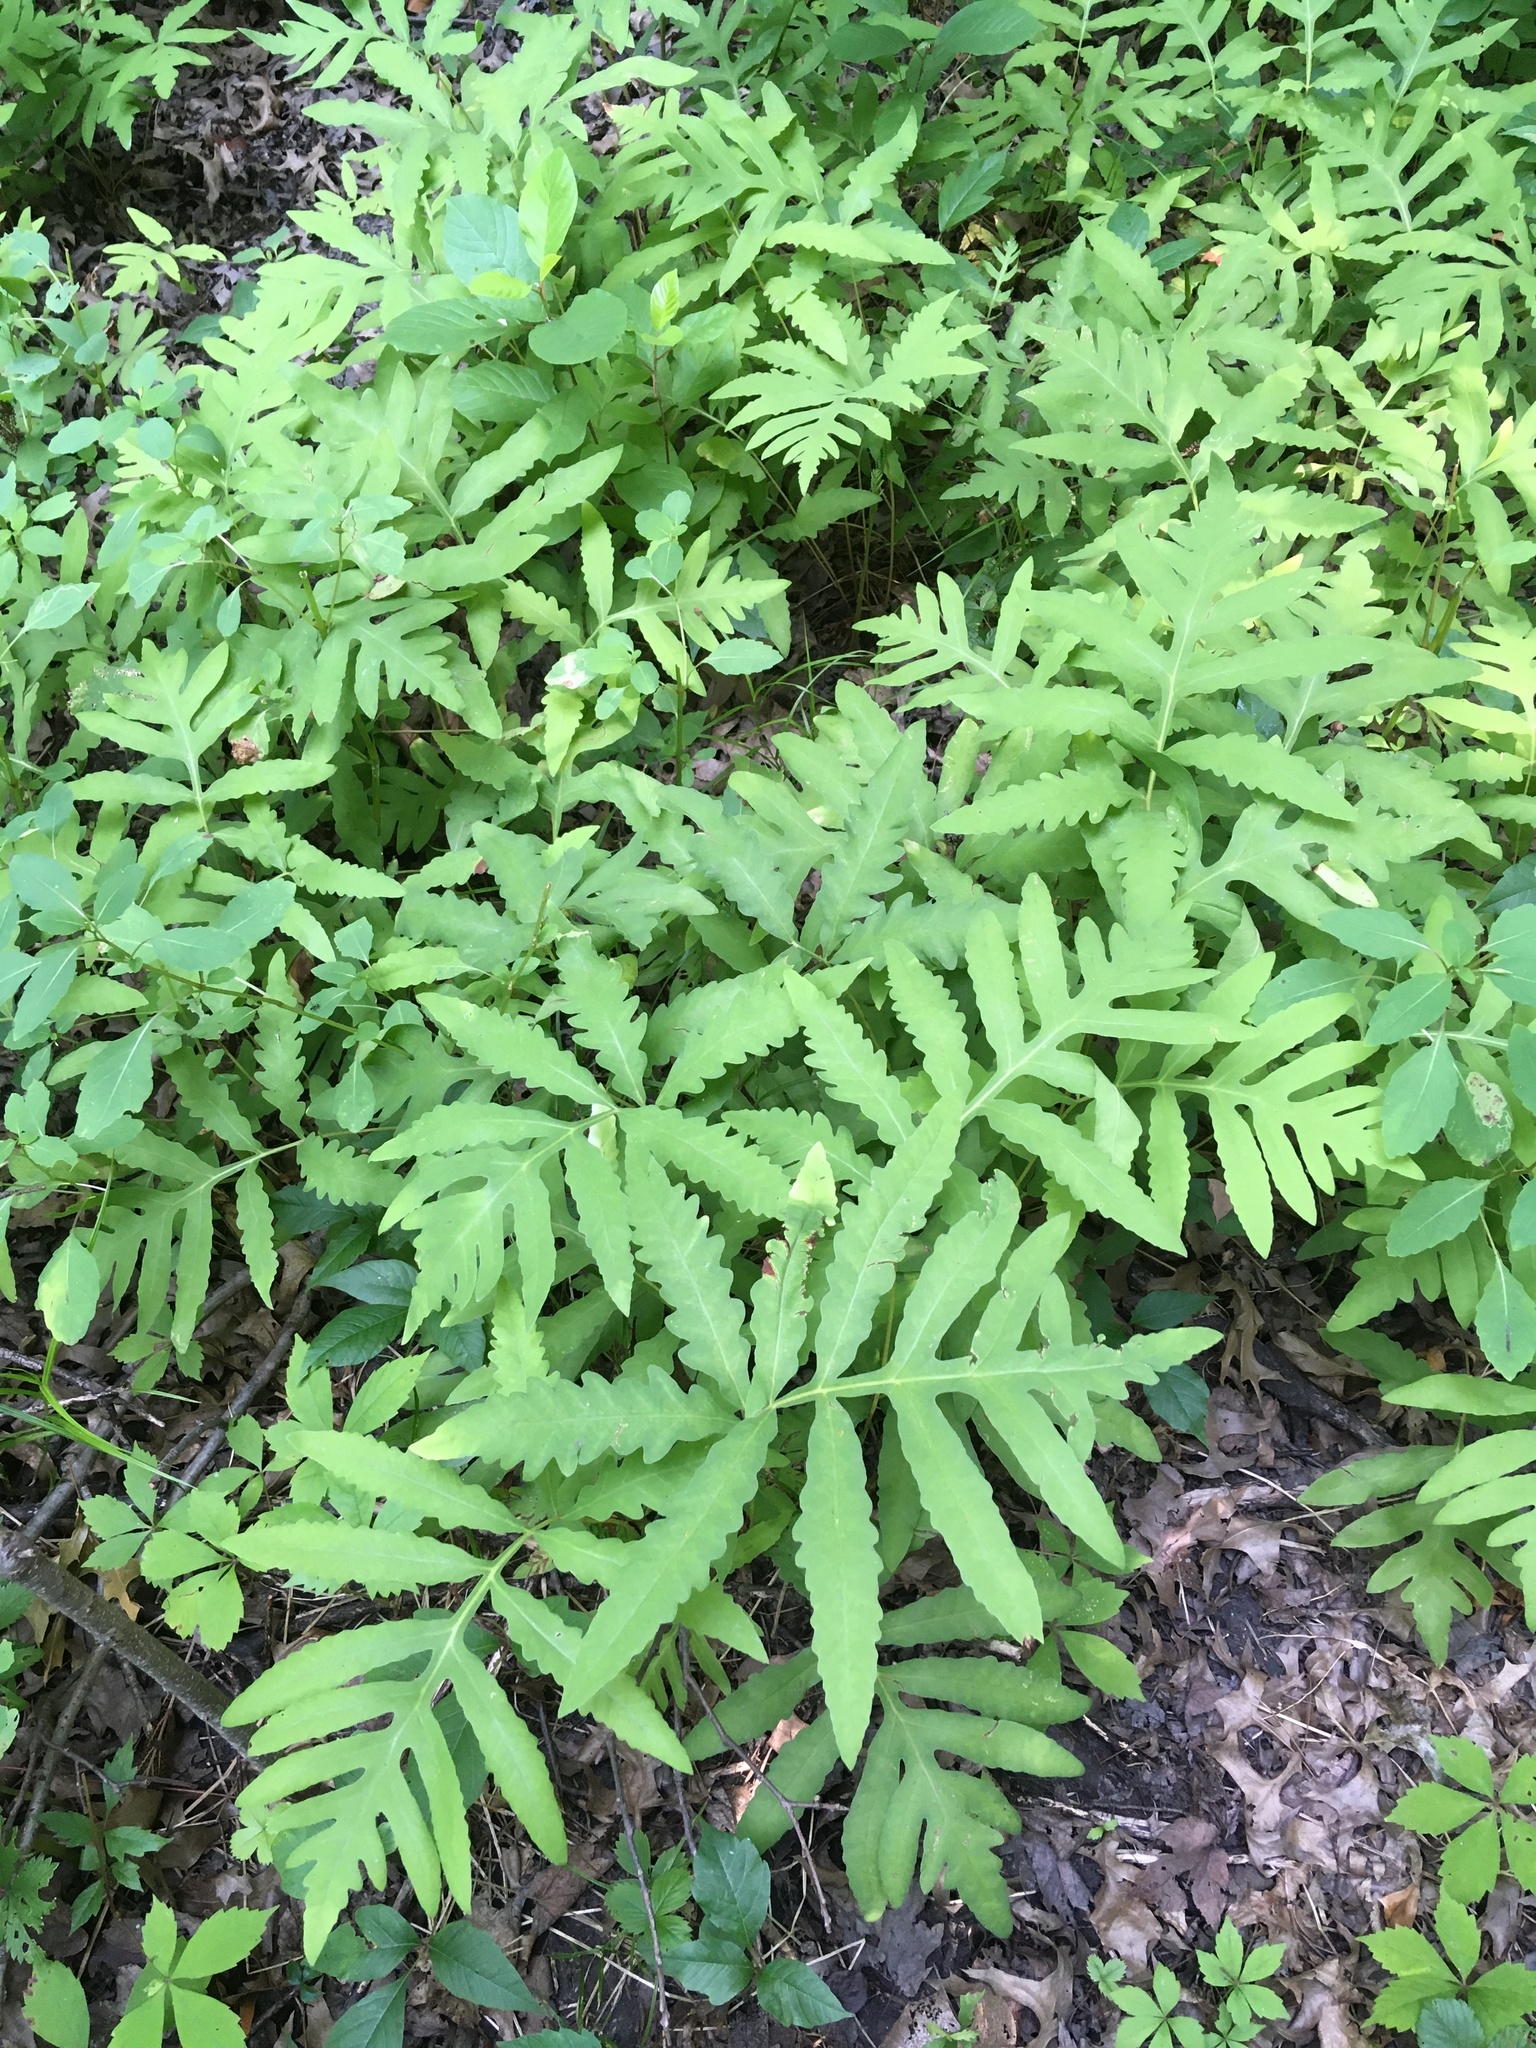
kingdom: Plantae
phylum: Tracheophyta
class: Polypodiopsida
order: Polypodiales
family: Onocleaceae
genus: Onoclea
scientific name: Onoclea sensibilis
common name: Sensitive fern
